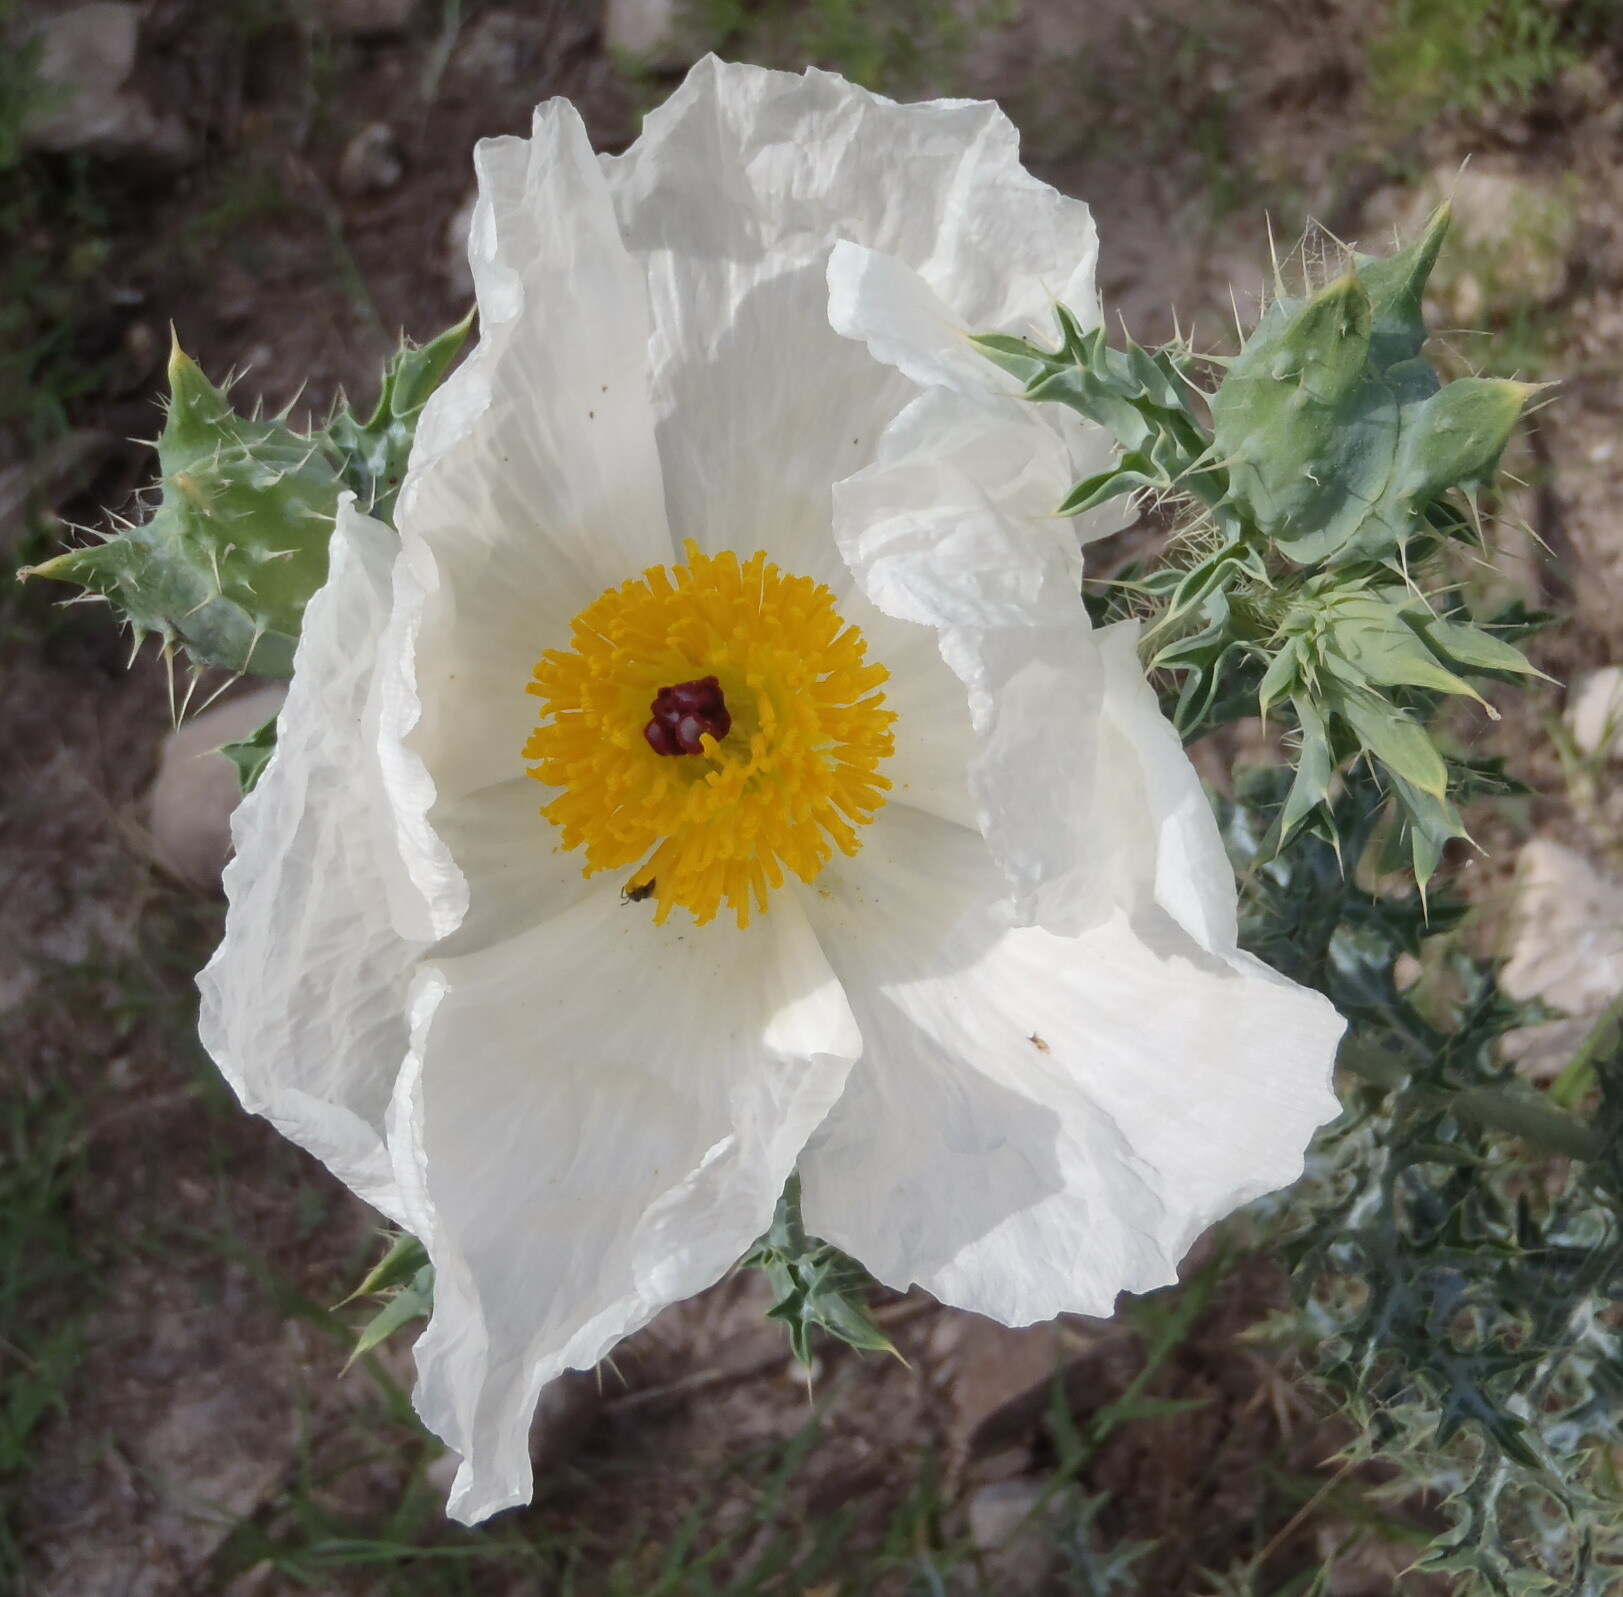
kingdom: Plantae
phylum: Tracheophyta
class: Magnoliopsida
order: Ranunculales
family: Papaveraceae
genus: Argemone
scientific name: Argemone albiflora
